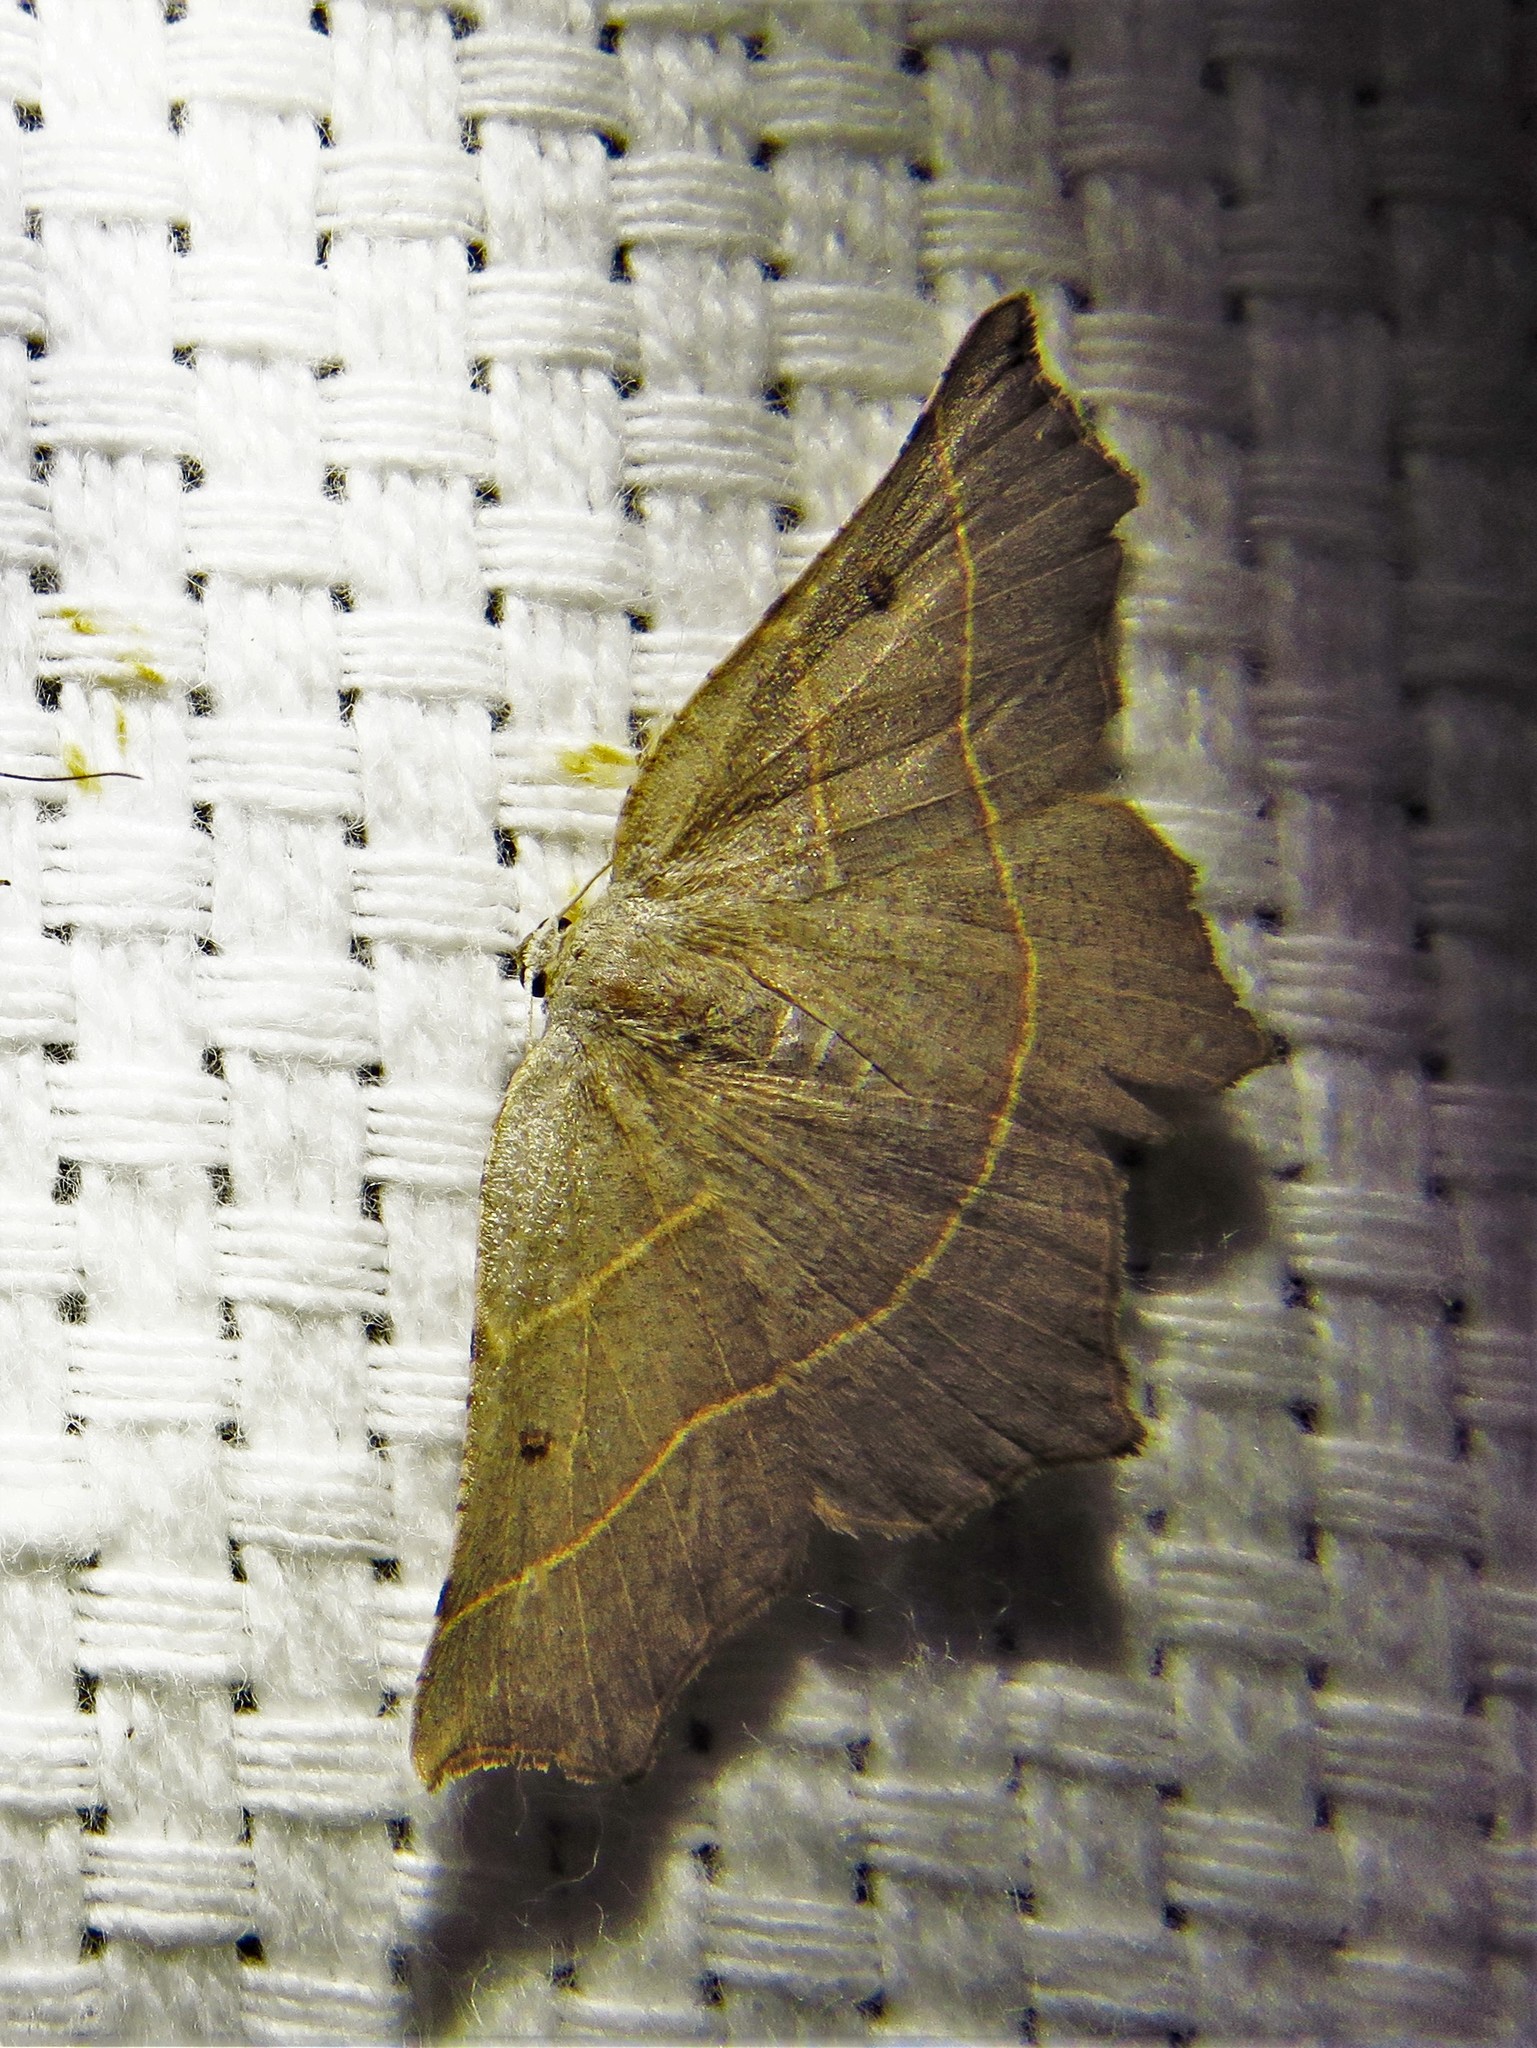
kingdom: Animalia
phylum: Arthropoda
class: Insecta
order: Lepidoptera
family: Geometridae
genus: Metanema
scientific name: Metanema inatomaria
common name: Pale metanema
